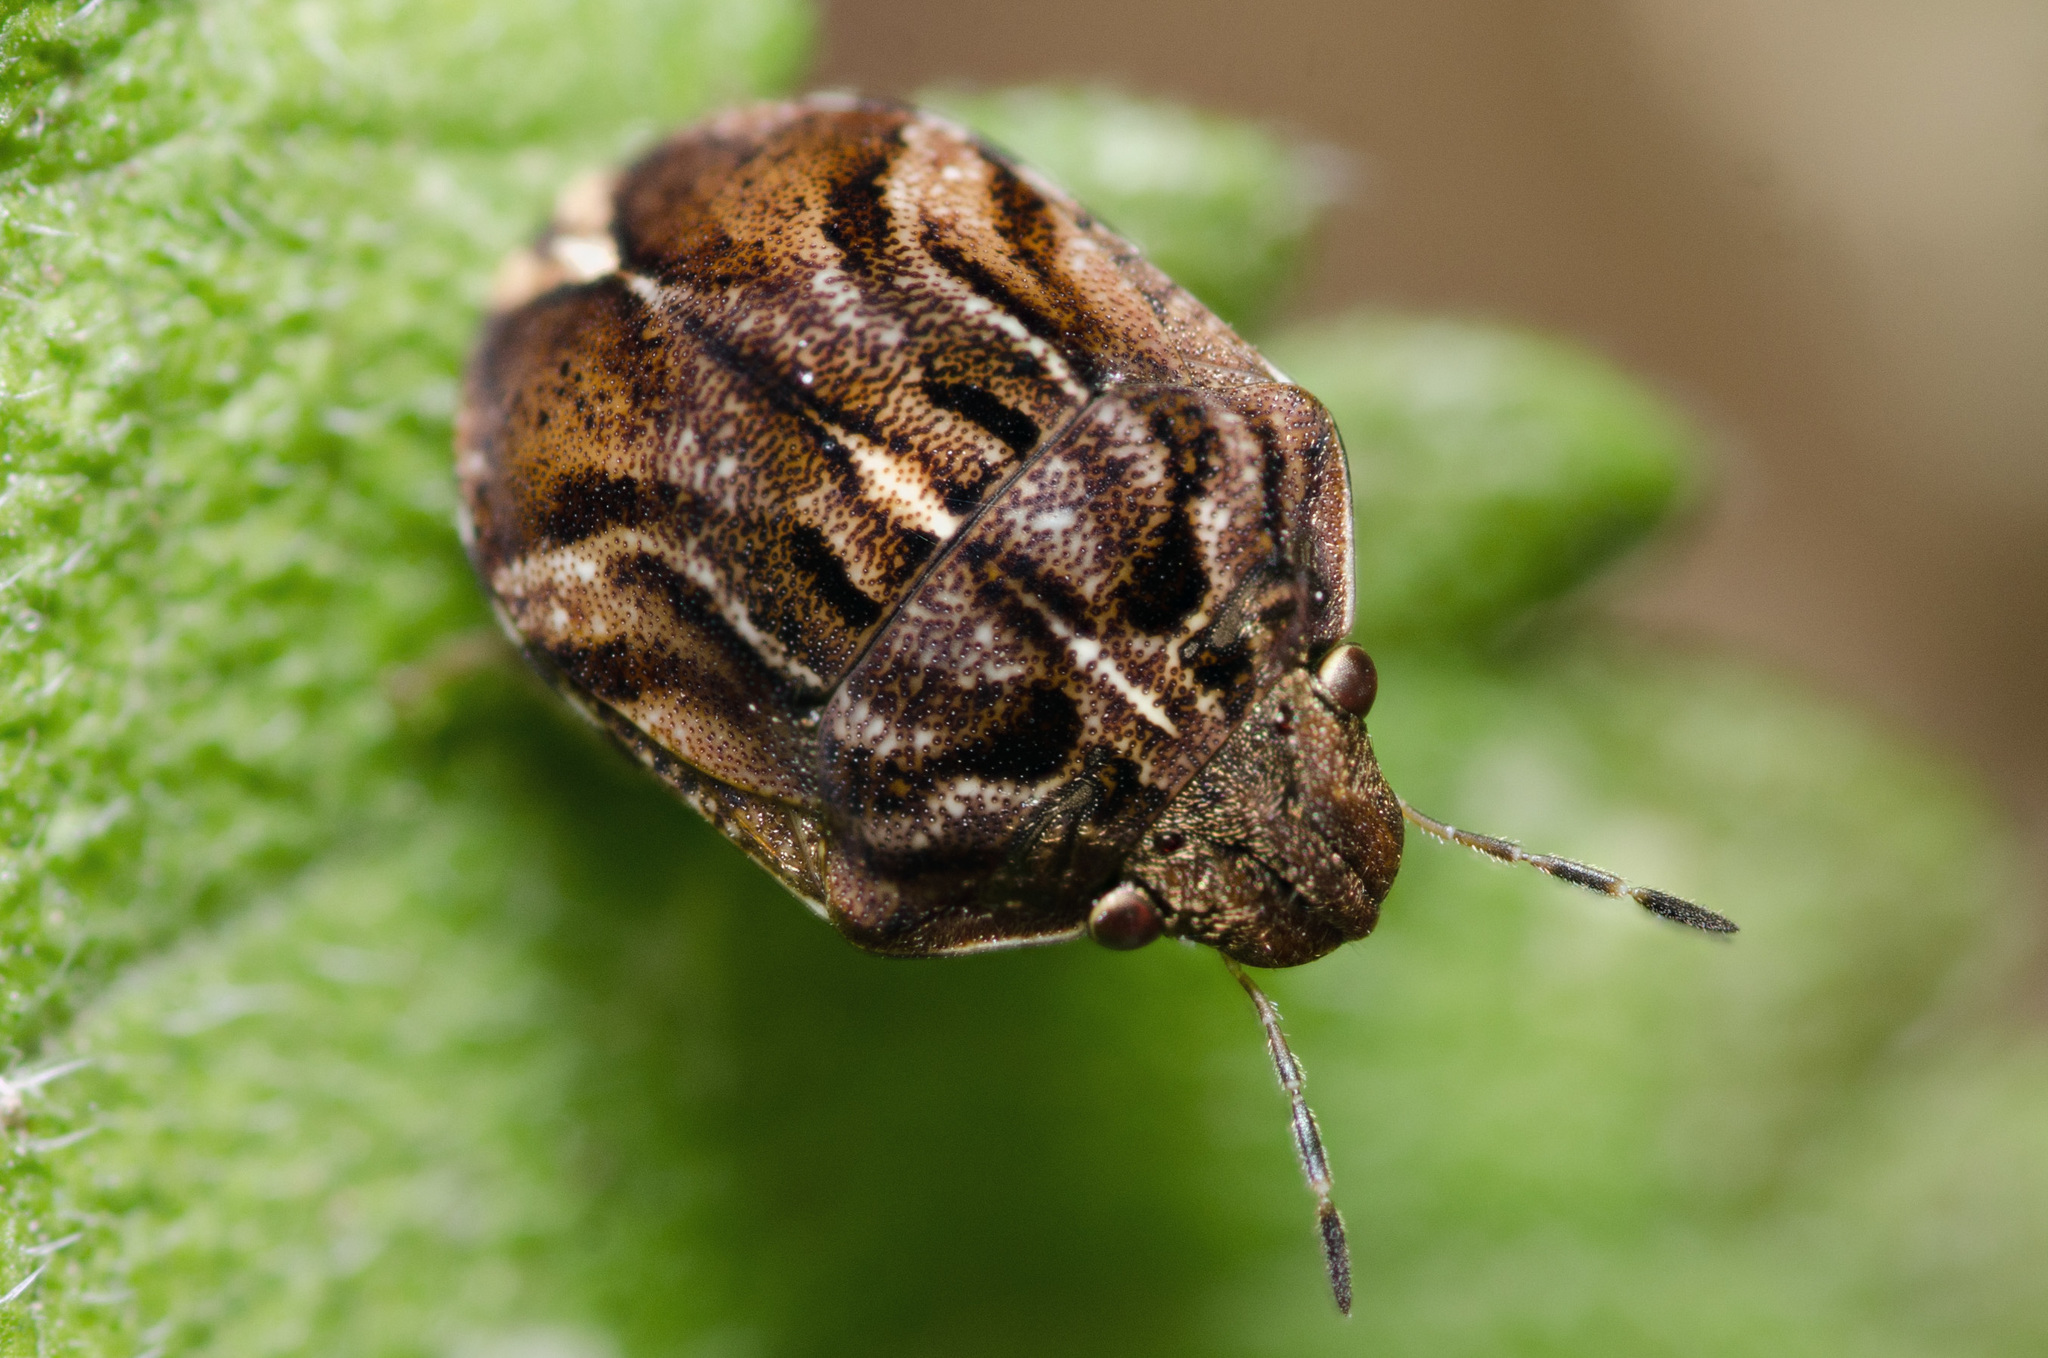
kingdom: Animalia
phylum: Arthropoda
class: Insecta
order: Hemiptera
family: Scutelleridae
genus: Homaemus
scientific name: Homaemus proteus
